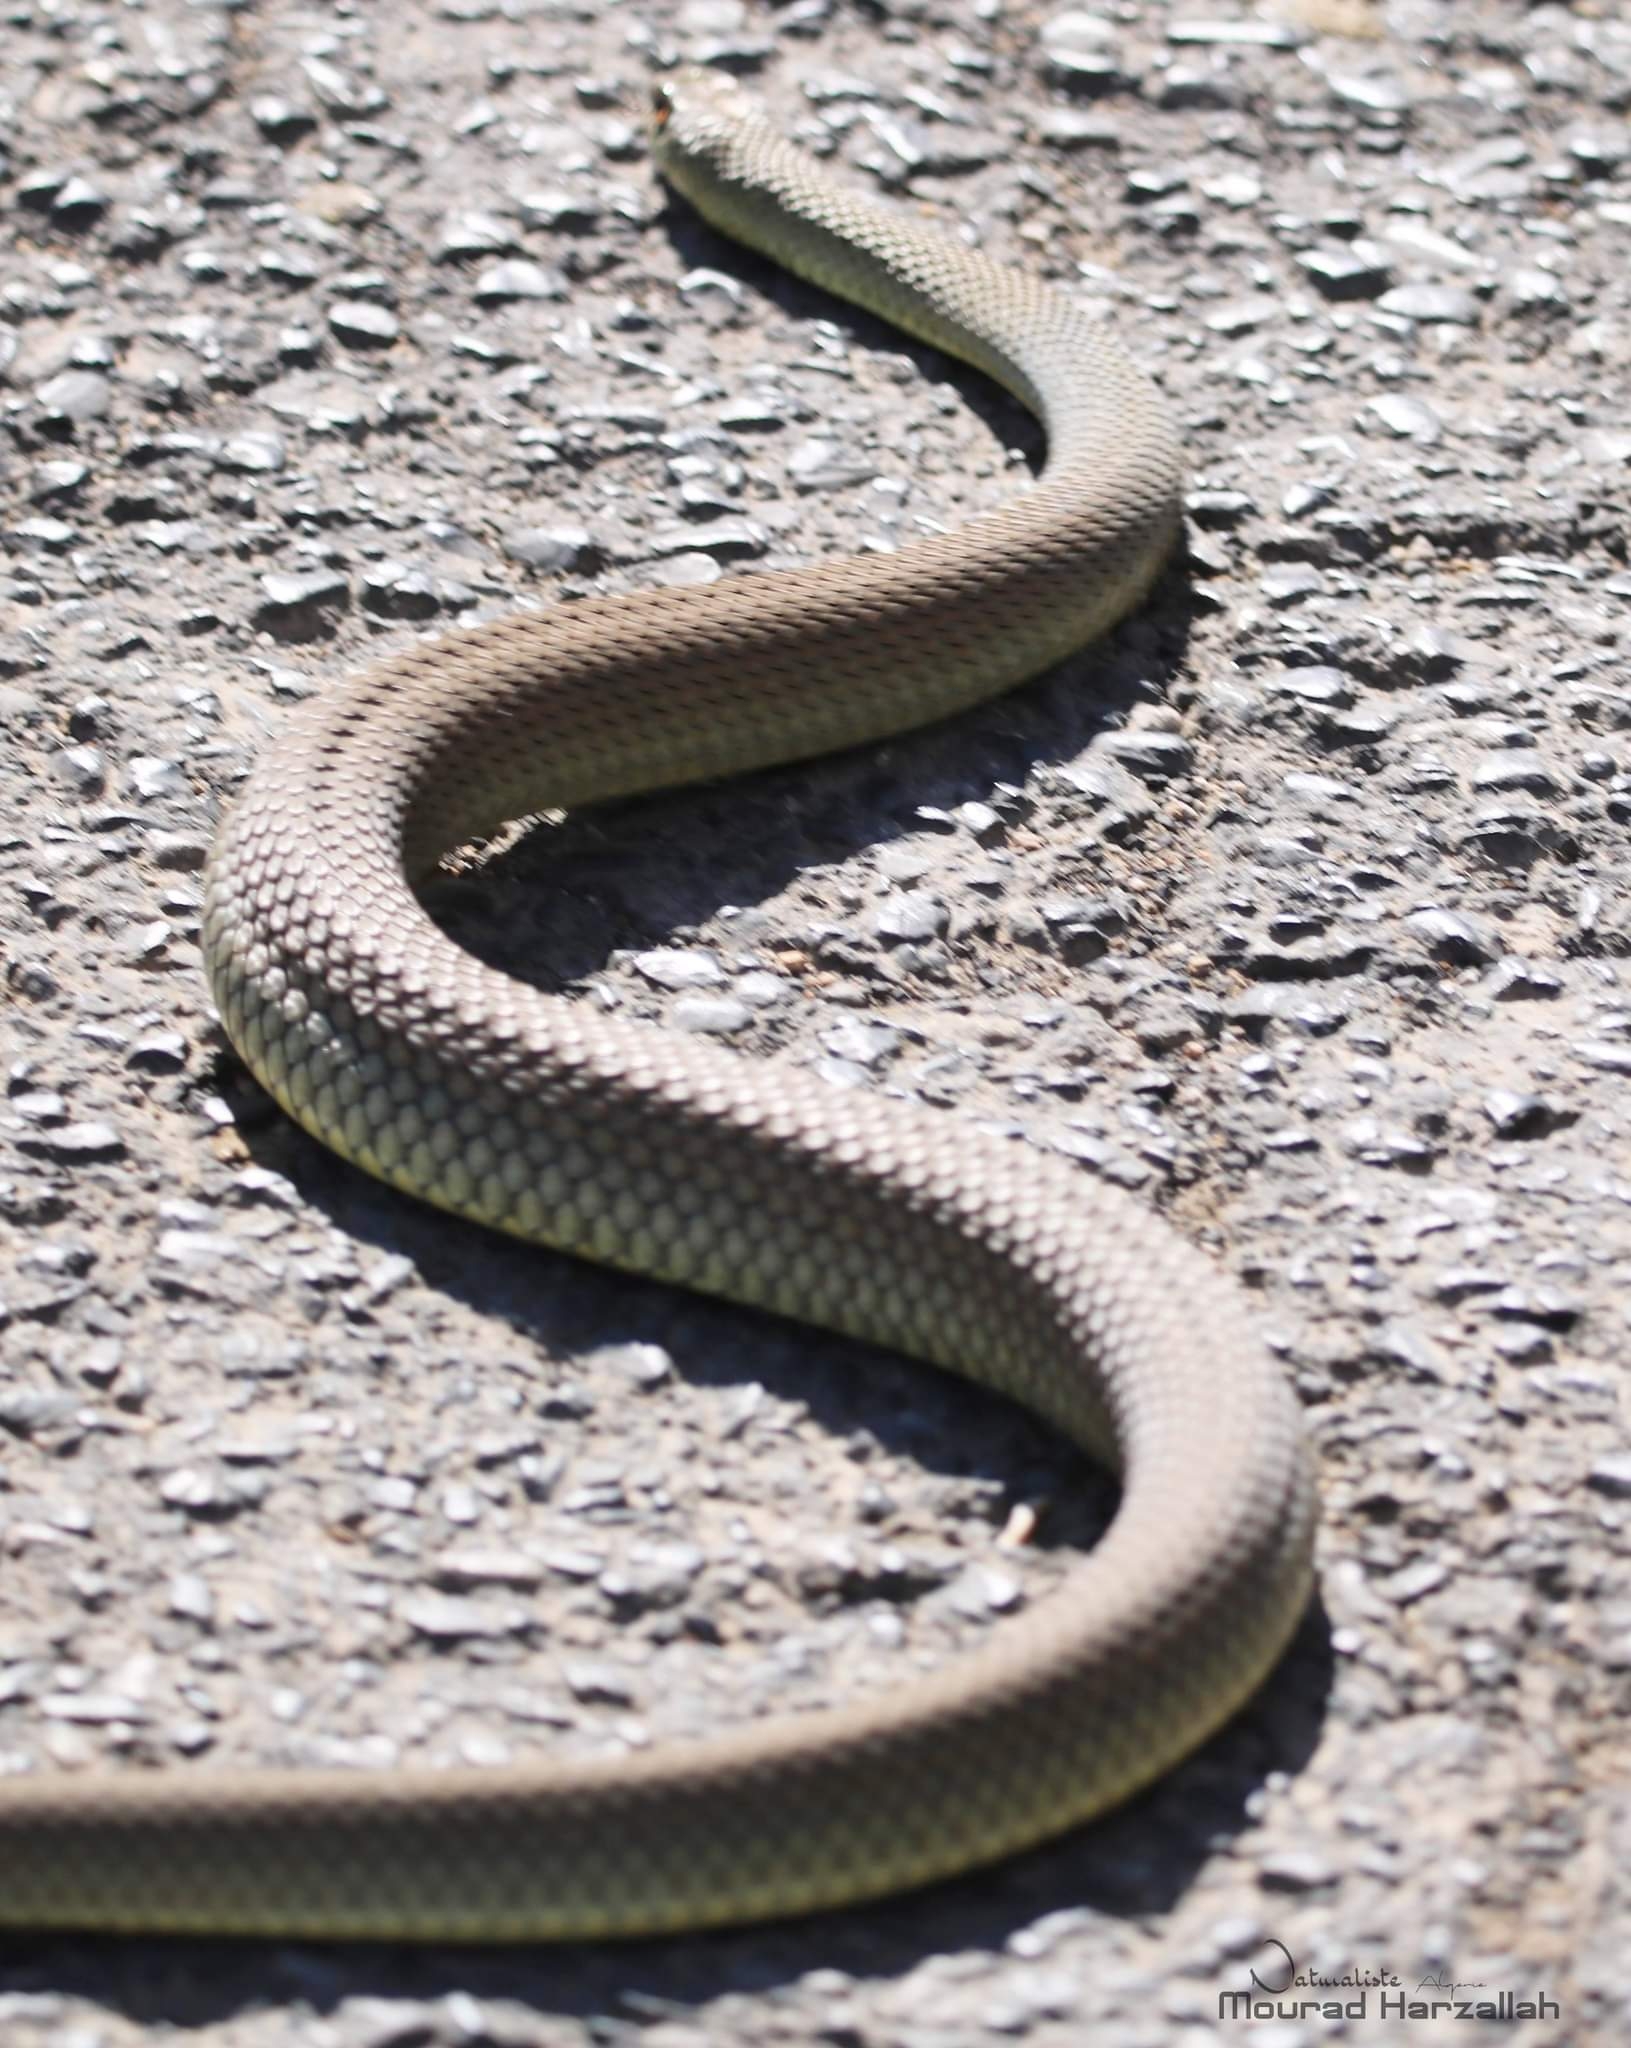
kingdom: Animalia
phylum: Chordata
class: Squamata
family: Psammophiidae
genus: Malpolon
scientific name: Malpolon monspessulanus
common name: Montpellier snake
